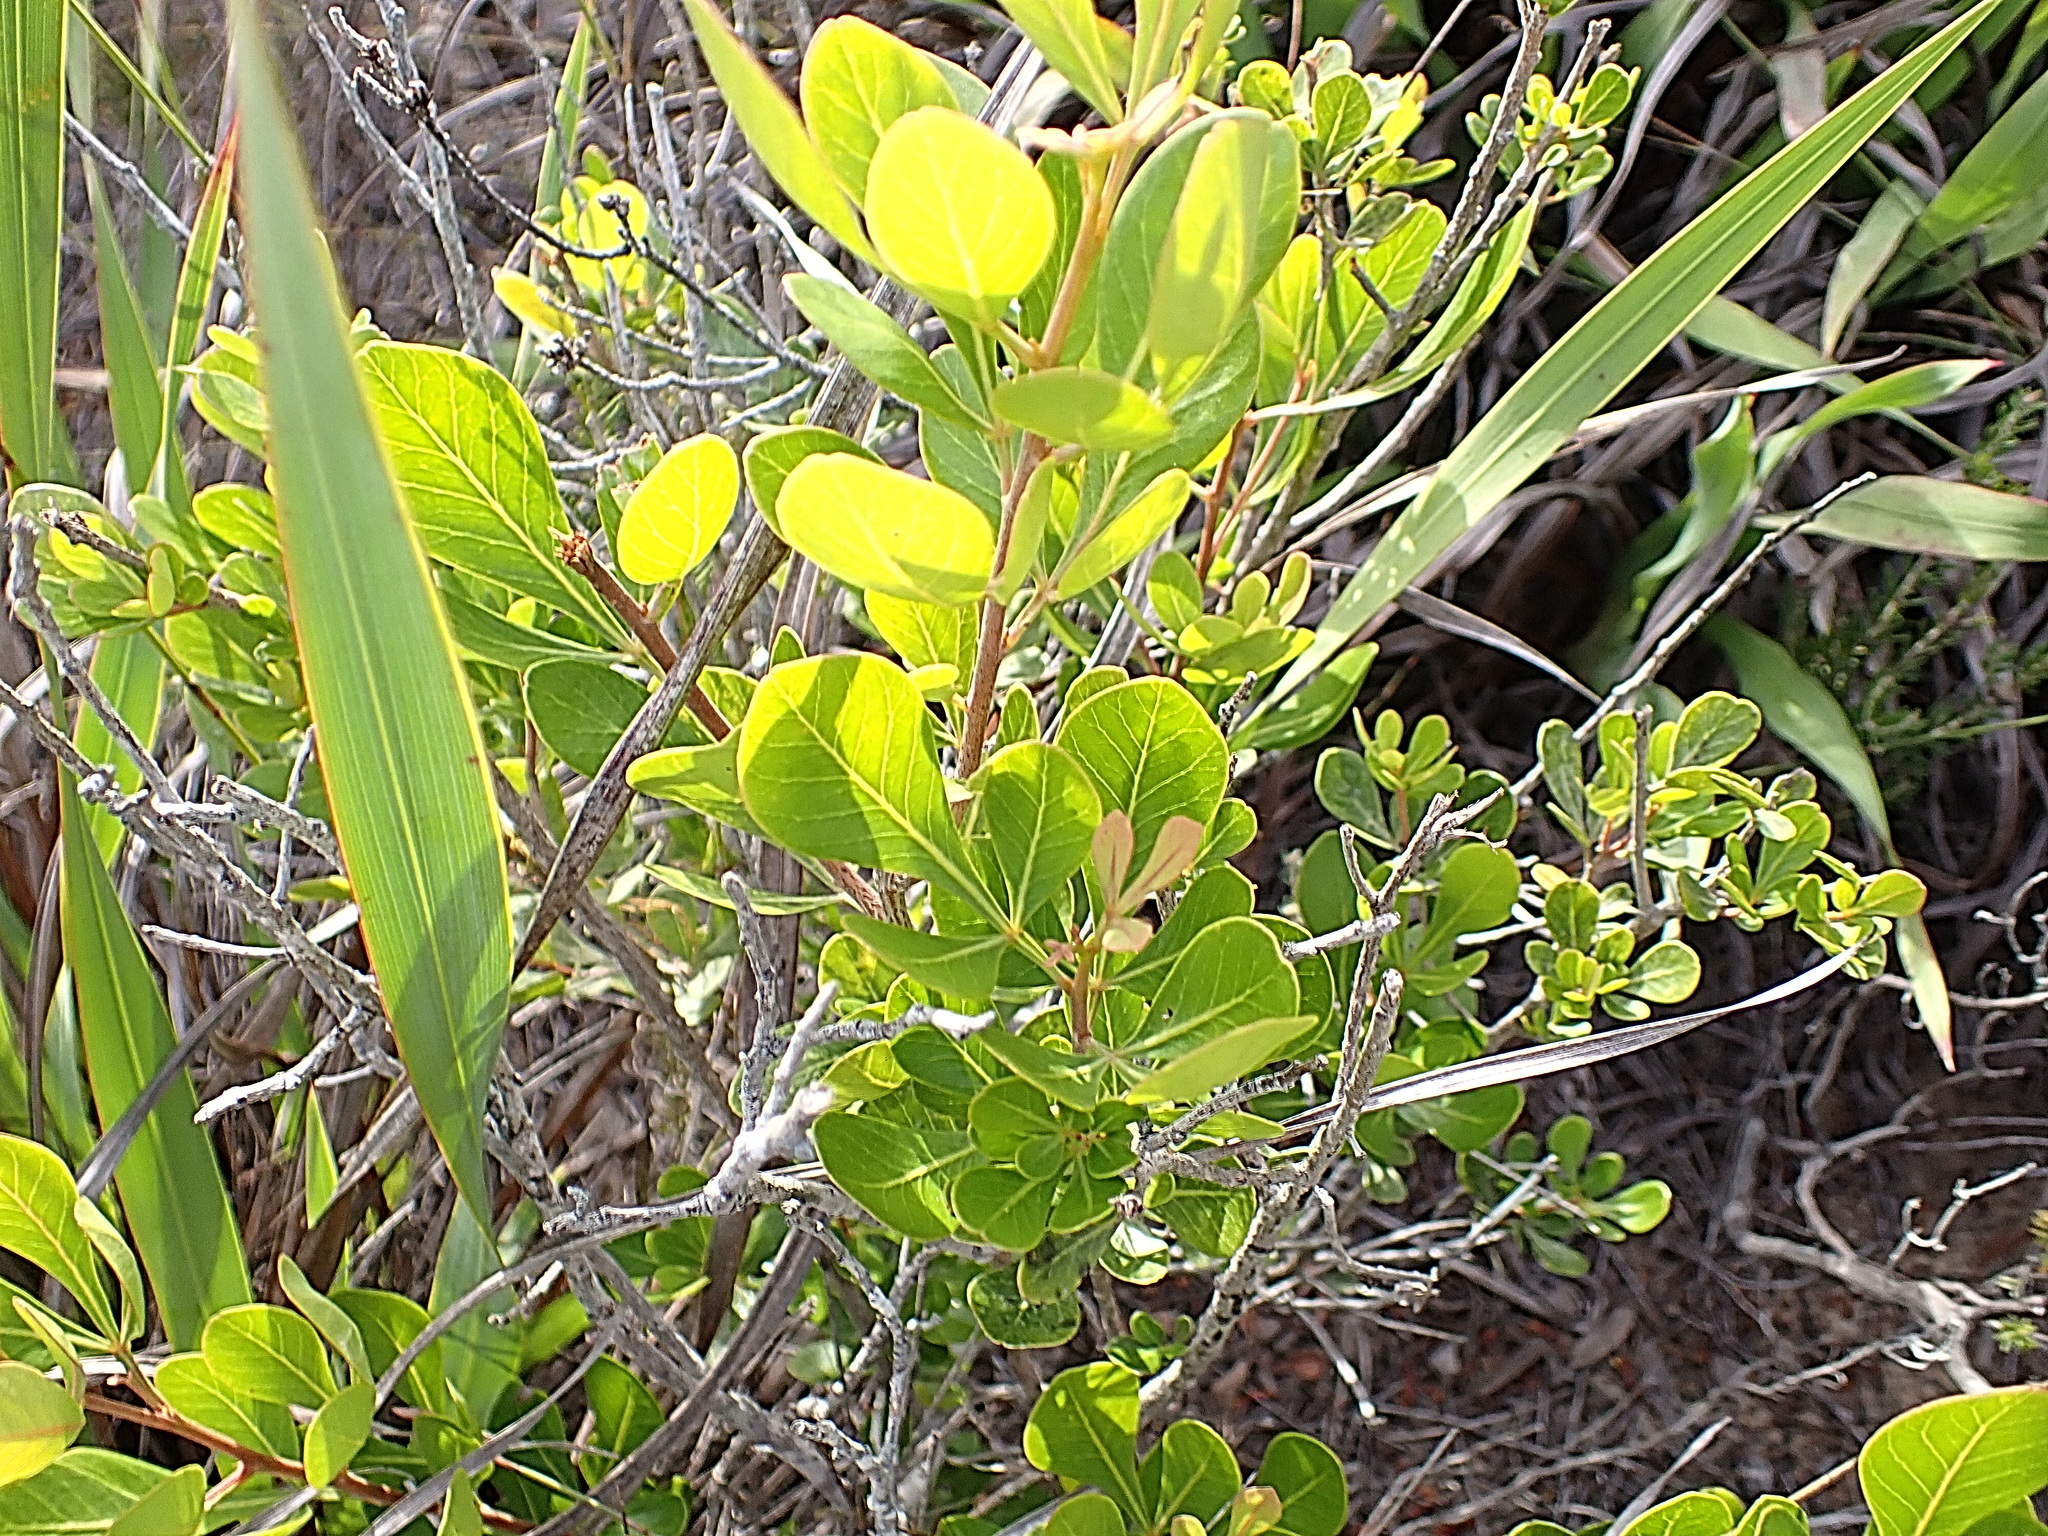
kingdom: Plantae
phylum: Tracheophyta
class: Magnoliopsida
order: Sapindales
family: Anacardiaceae
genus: Searsia
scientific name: Searsia lucida
